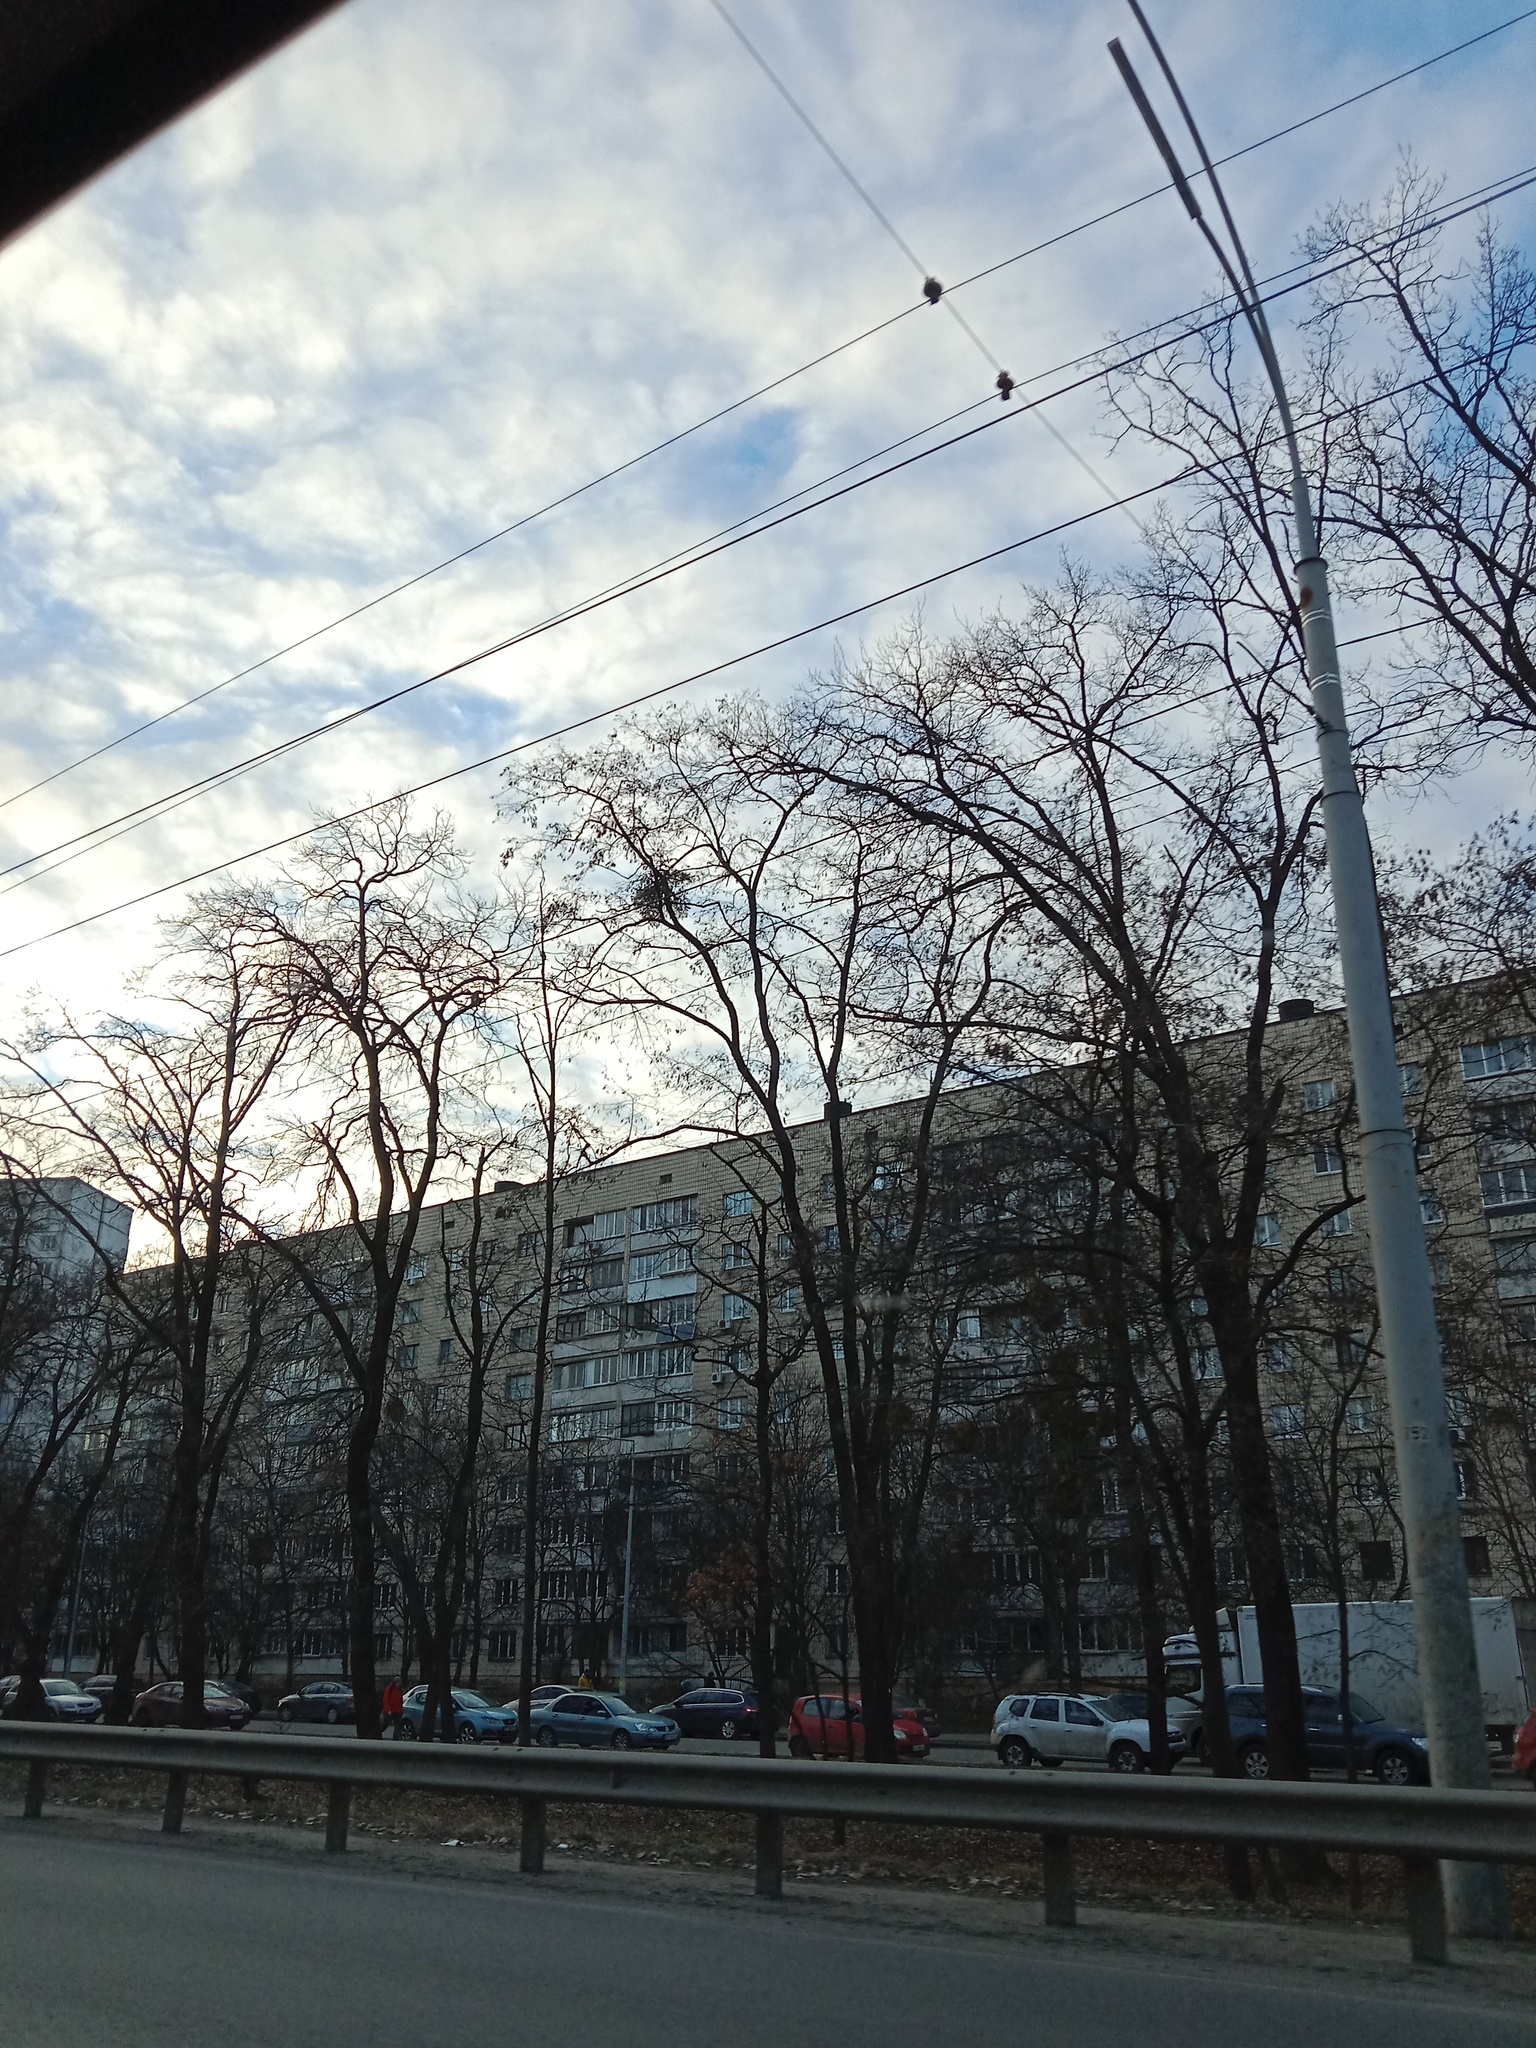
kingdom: Plantae
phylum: Tracheophyta
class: Magnoliopsida
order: Santalales
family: Viscaceae
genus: Viscum
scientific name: Viscum album
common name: Mistletoe
